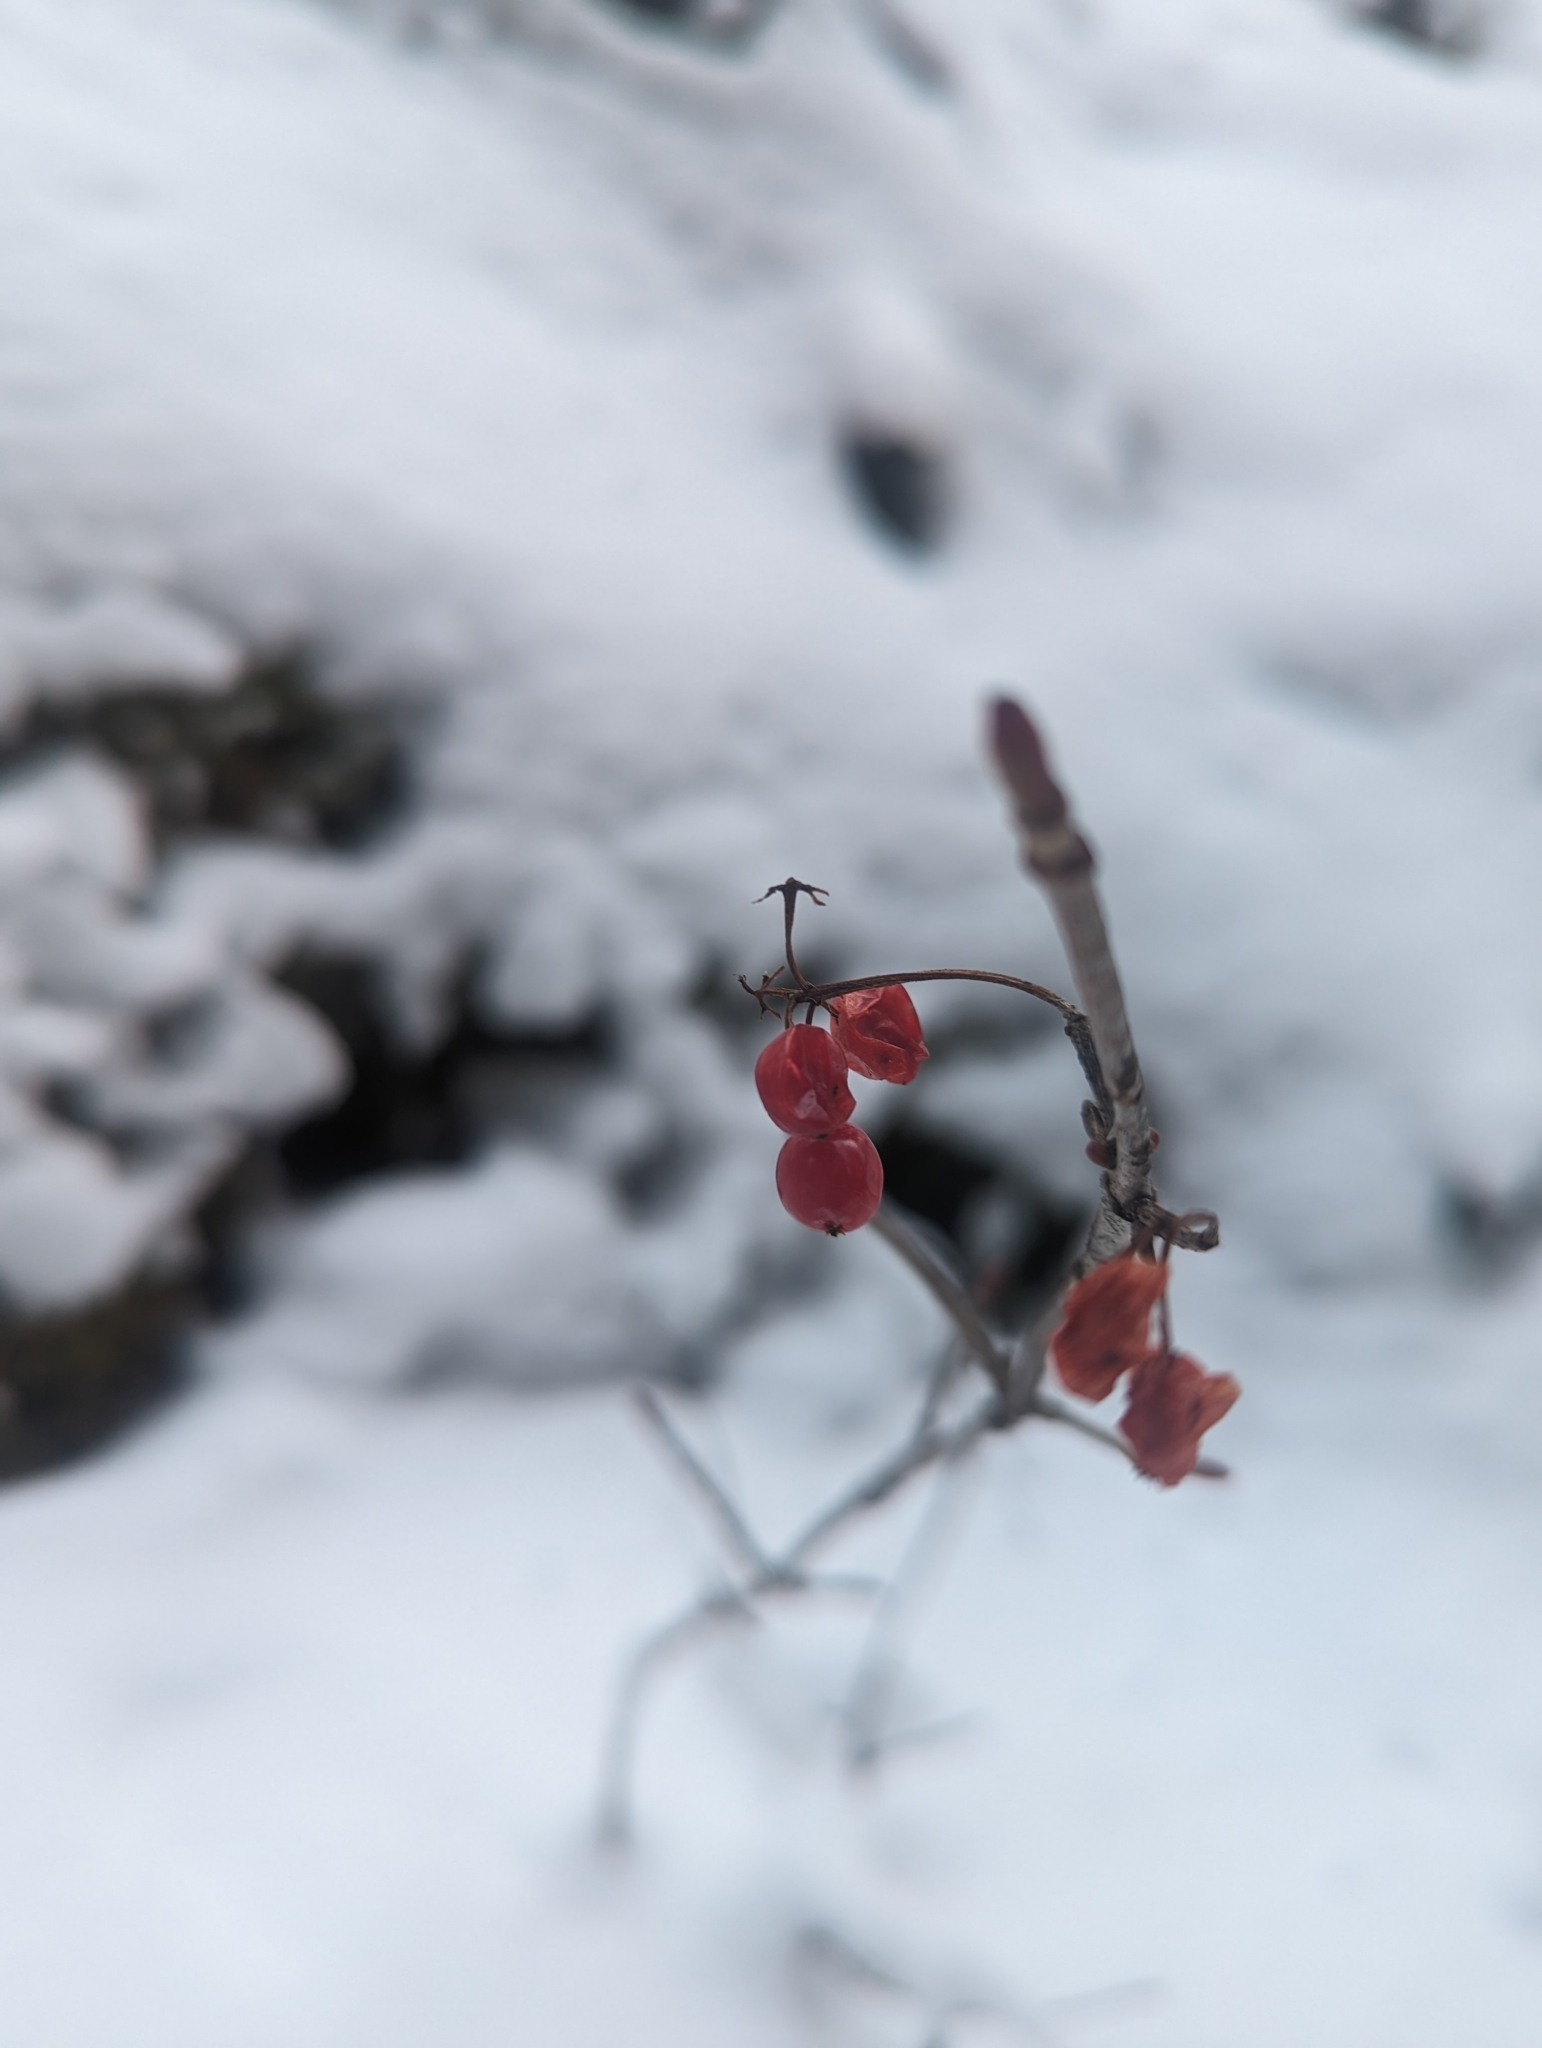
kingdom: Plantae
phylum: Tracheophyta
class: Magnoliopsida
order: Dipsacales
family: Viburnaceae
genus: Viburnum
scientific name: Viburnum edule
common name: Mooseberry
